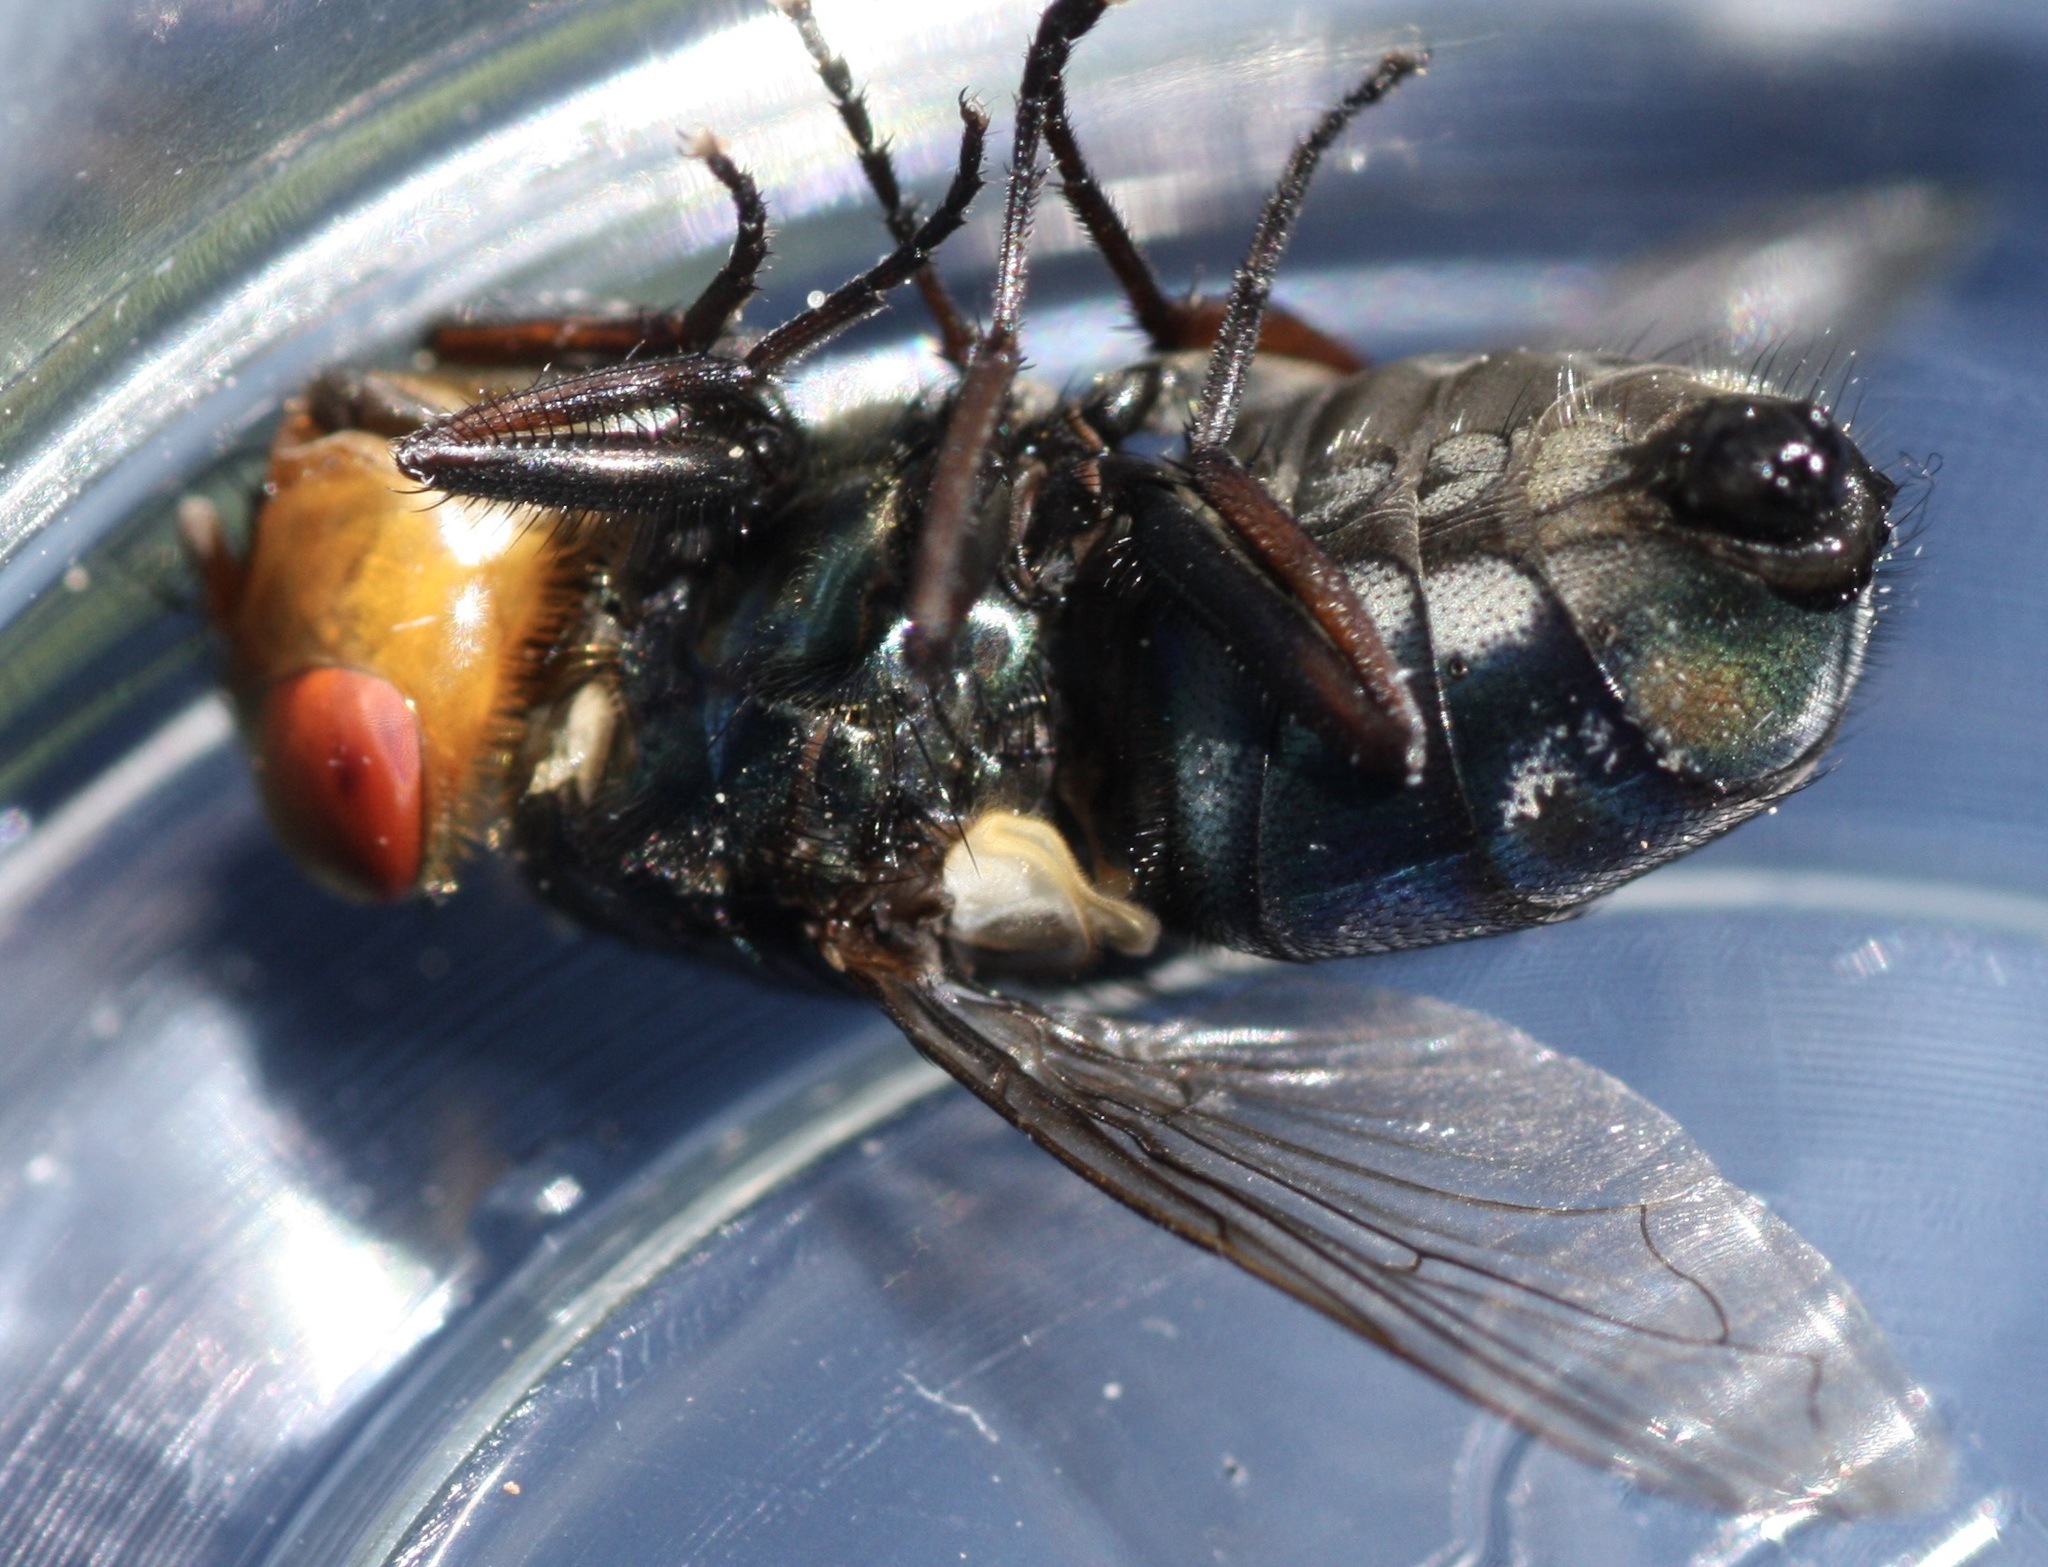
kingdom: Animalia
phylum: Arthropoda
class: Insecta
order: Diptera
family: Calliphoridae
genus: Cochliomyia
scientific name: Cochliomyia macellaria
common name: Secondary screwworm
